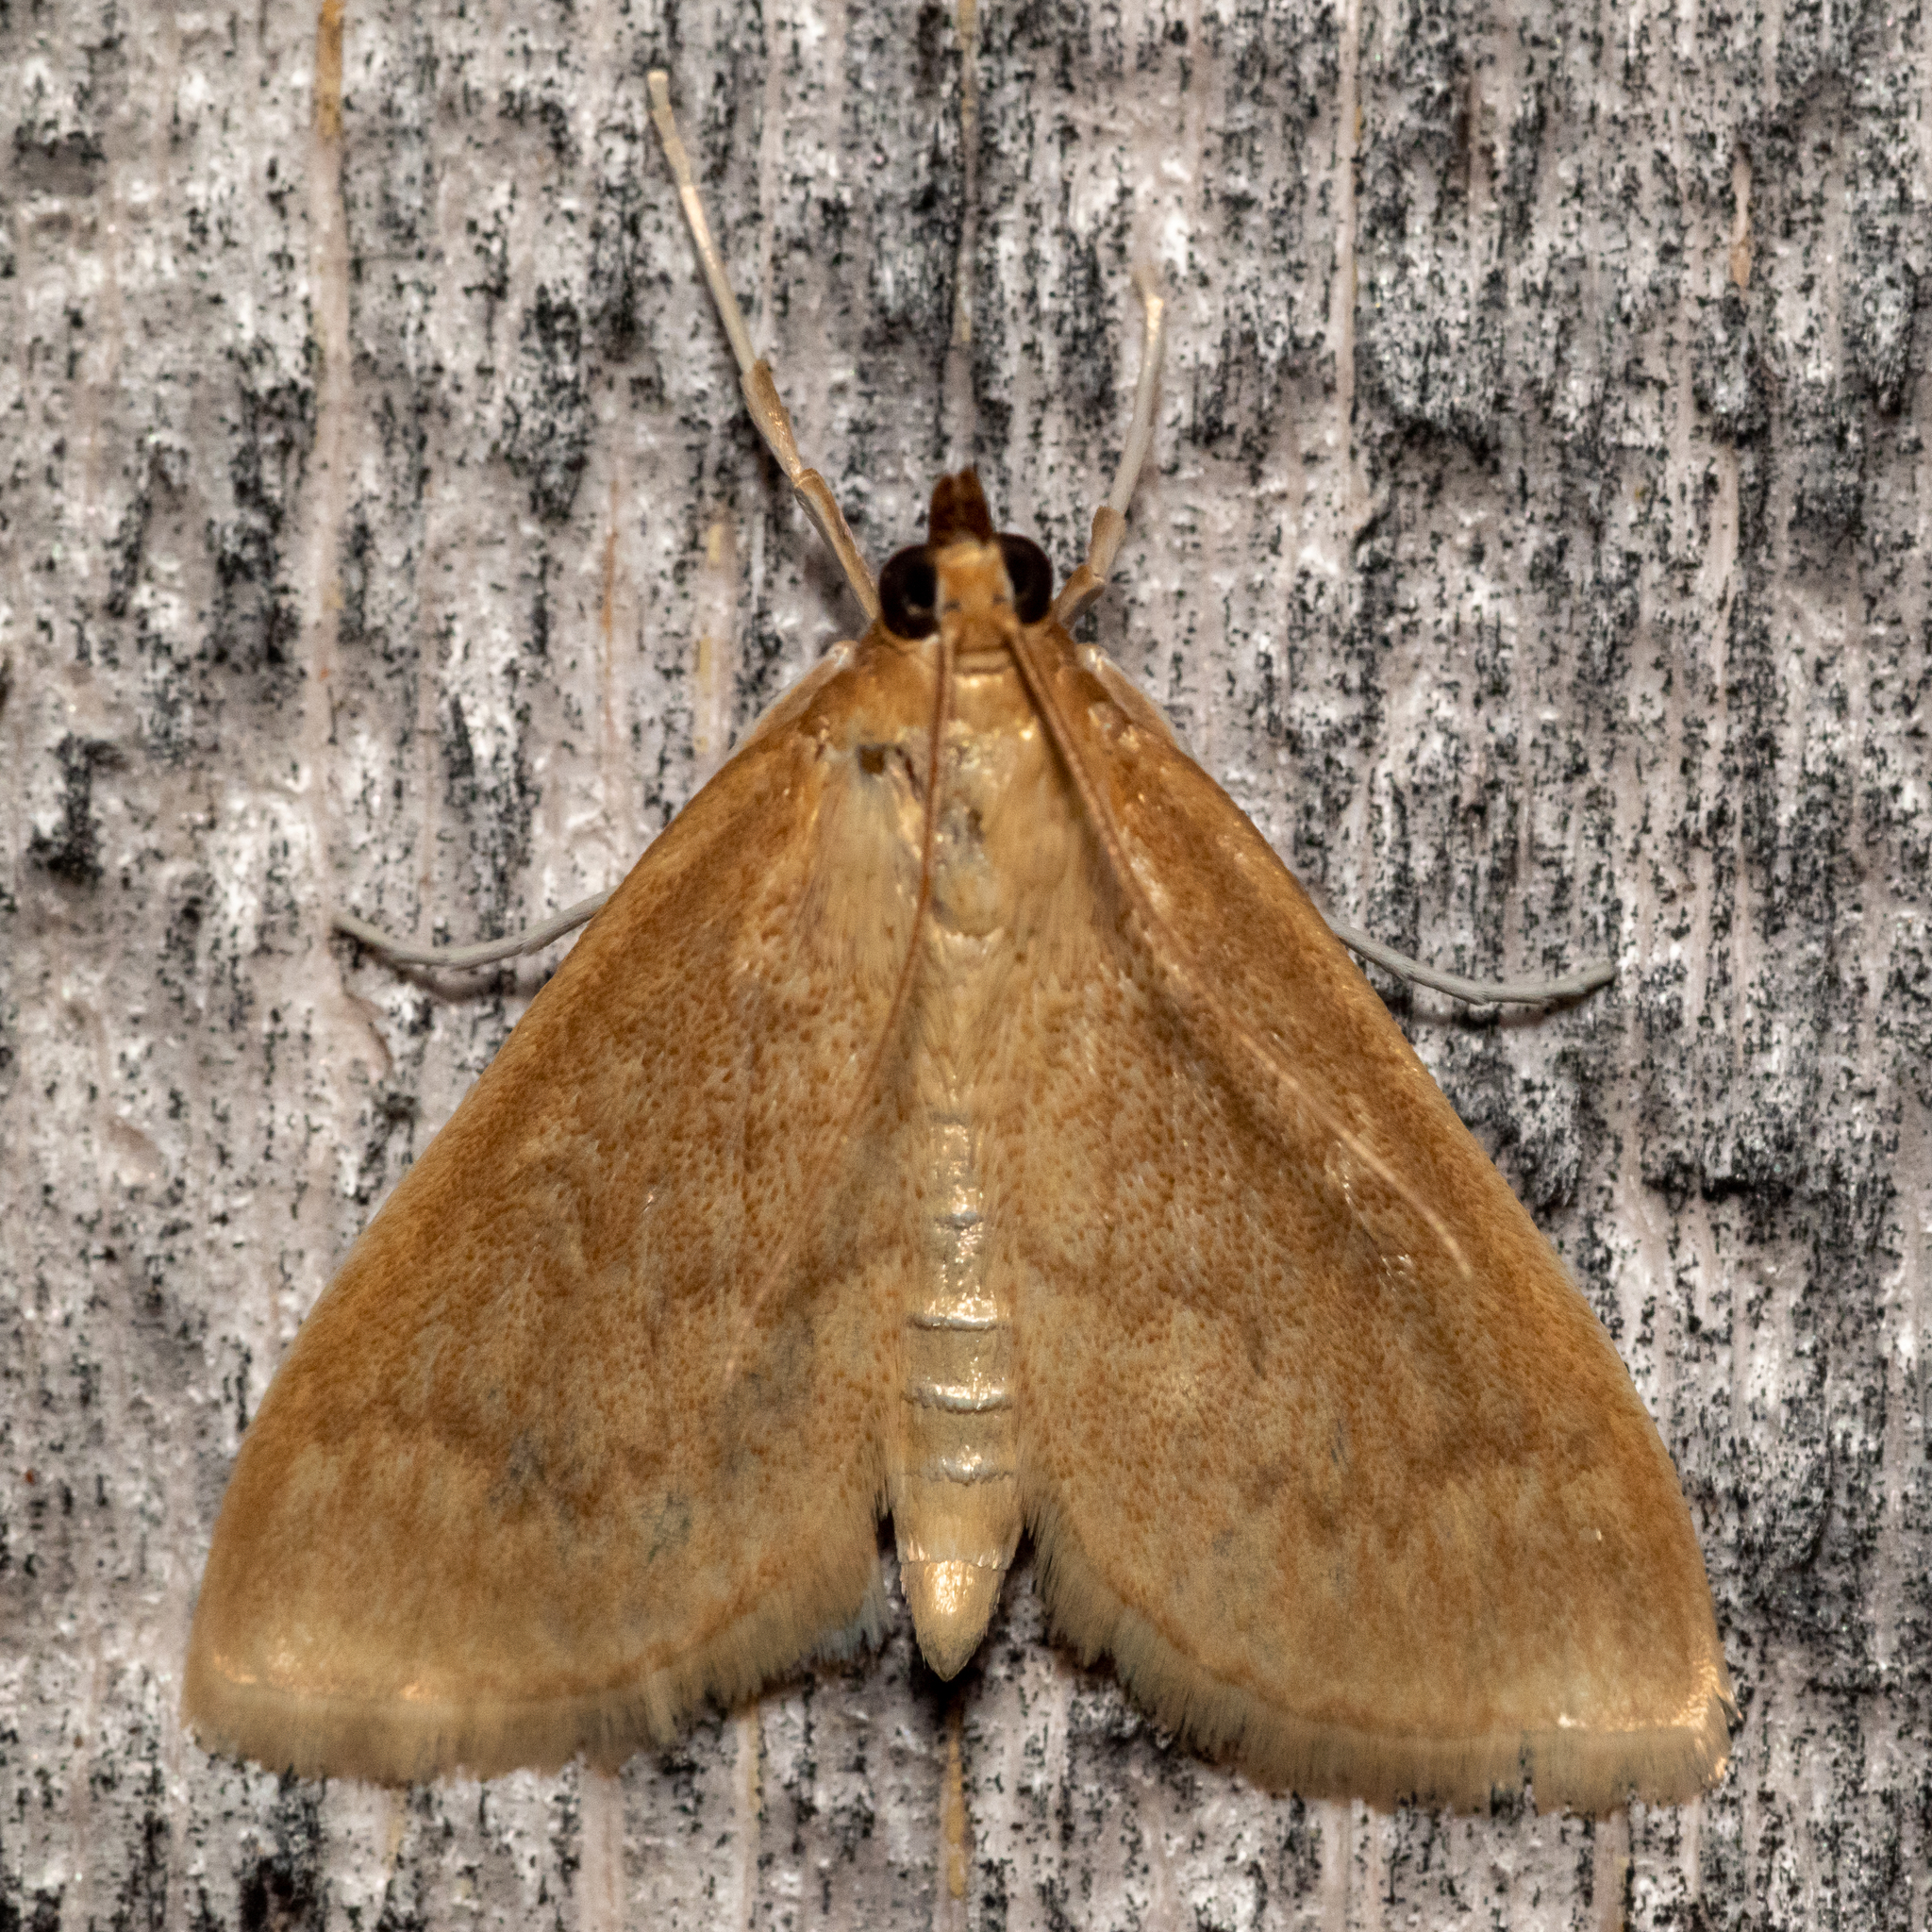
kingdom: Animalia
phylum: Arthropoda
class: Insecta
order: Lepidoptera
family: Crambidae
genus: Anania
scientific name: Anania Framinghamia helvalis
